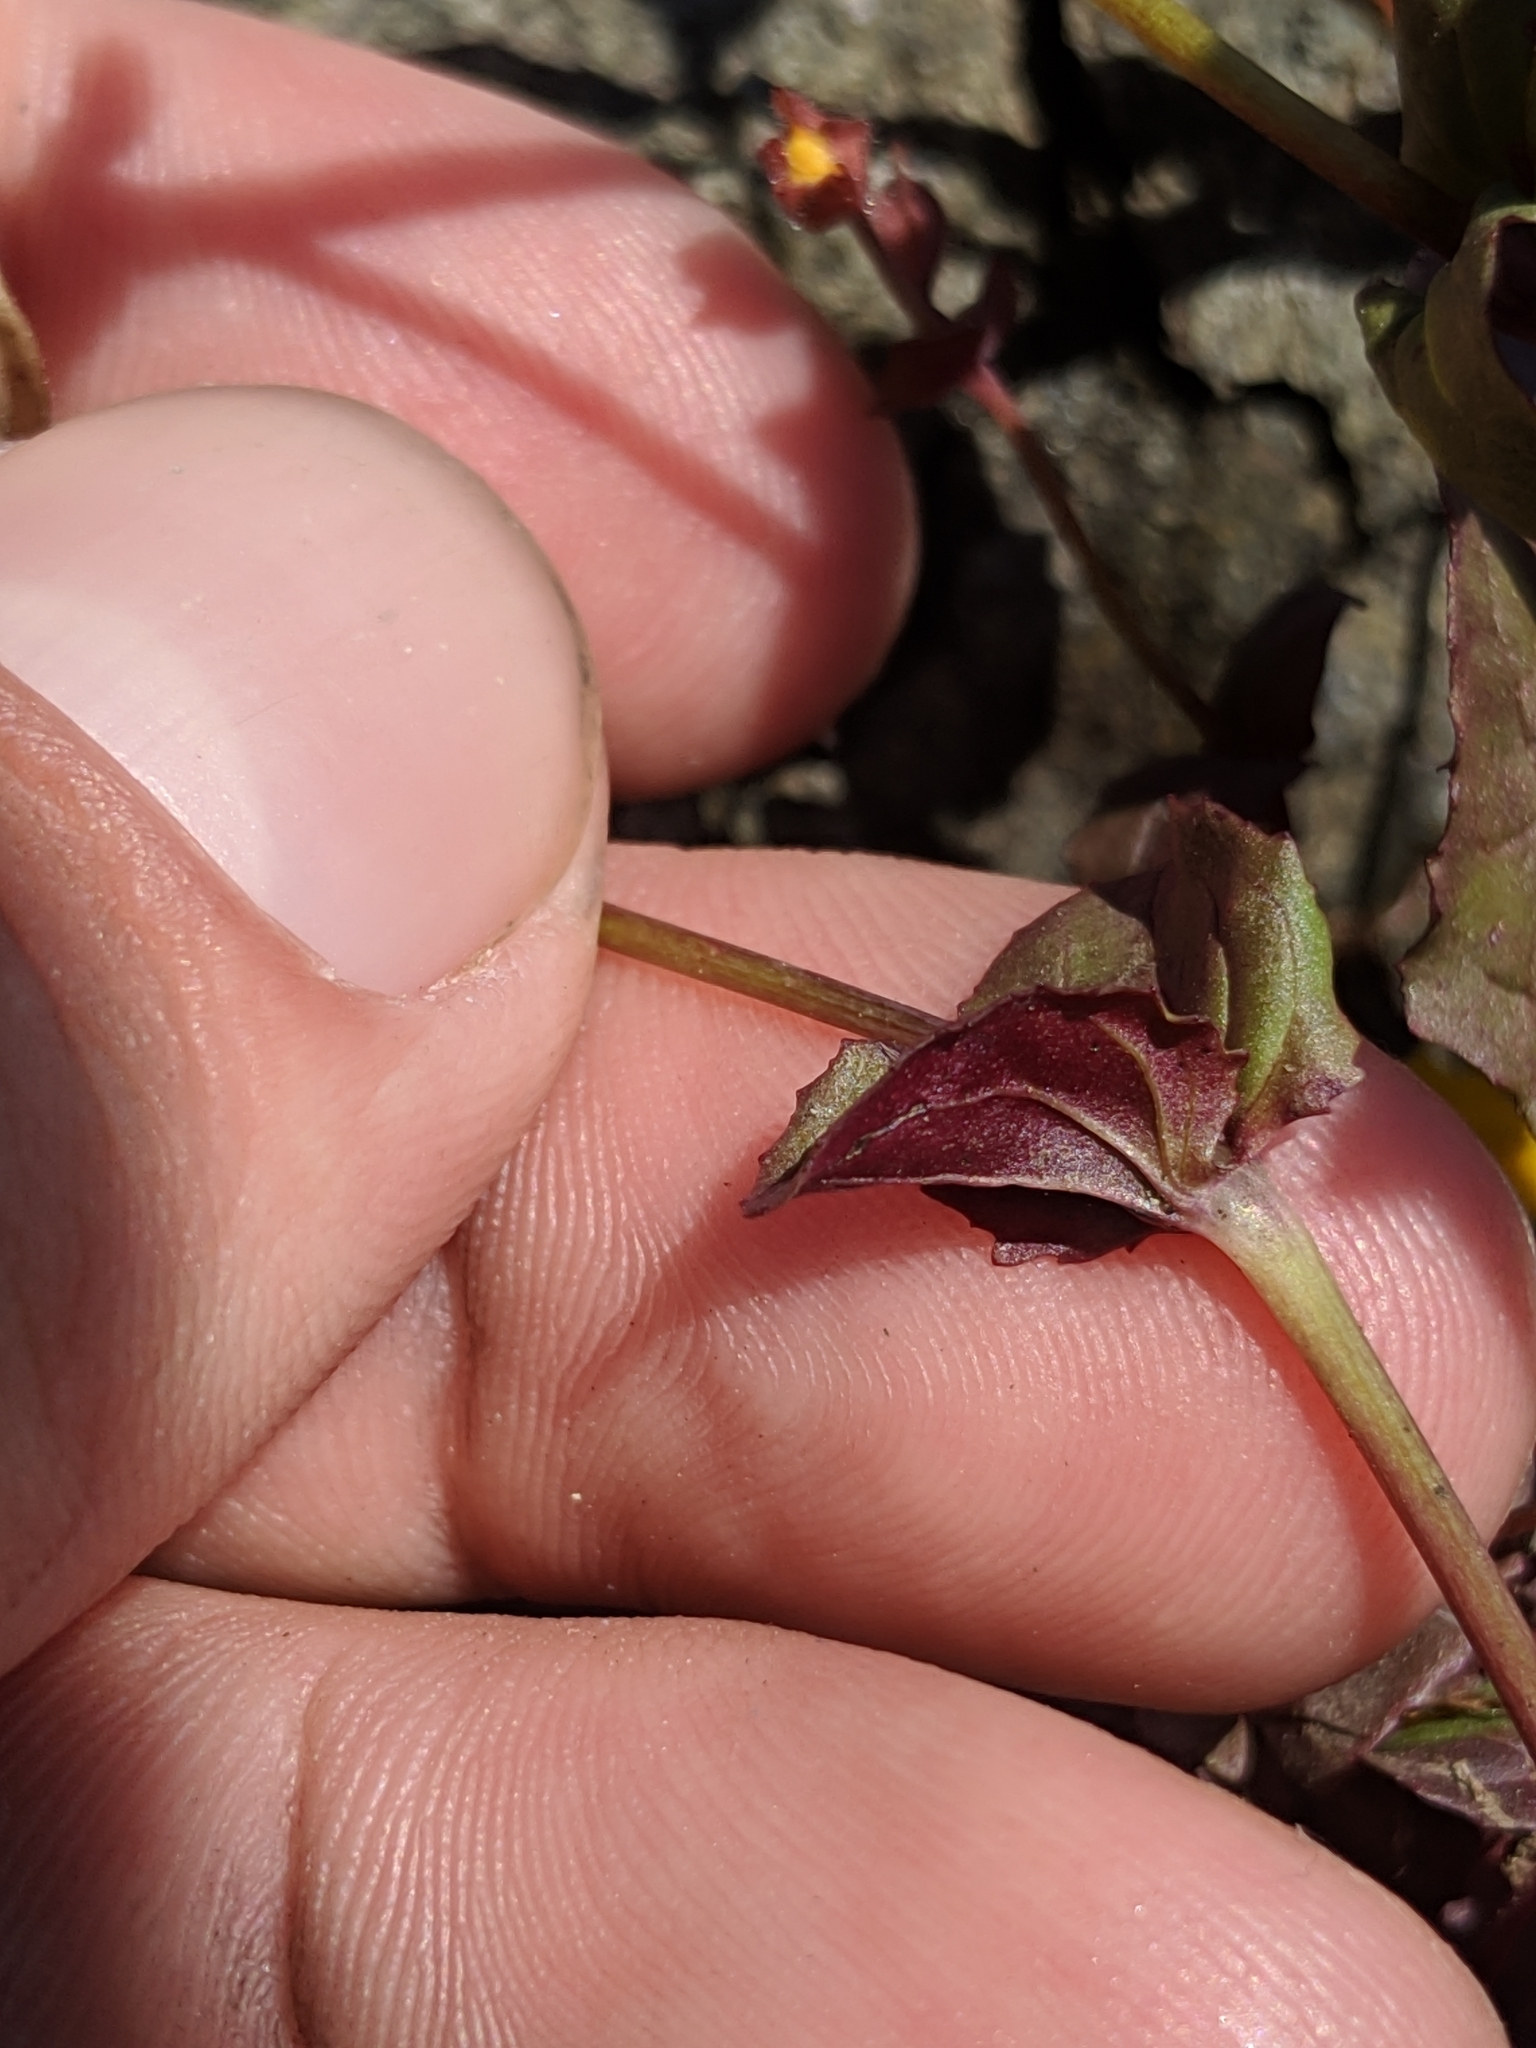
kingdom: Plantae
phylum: Tracheophyta
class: Magnoliopsida
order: Lamiales
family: Phrymaceae
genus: Erythranthe
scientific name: Erythranthe serpentinicola
